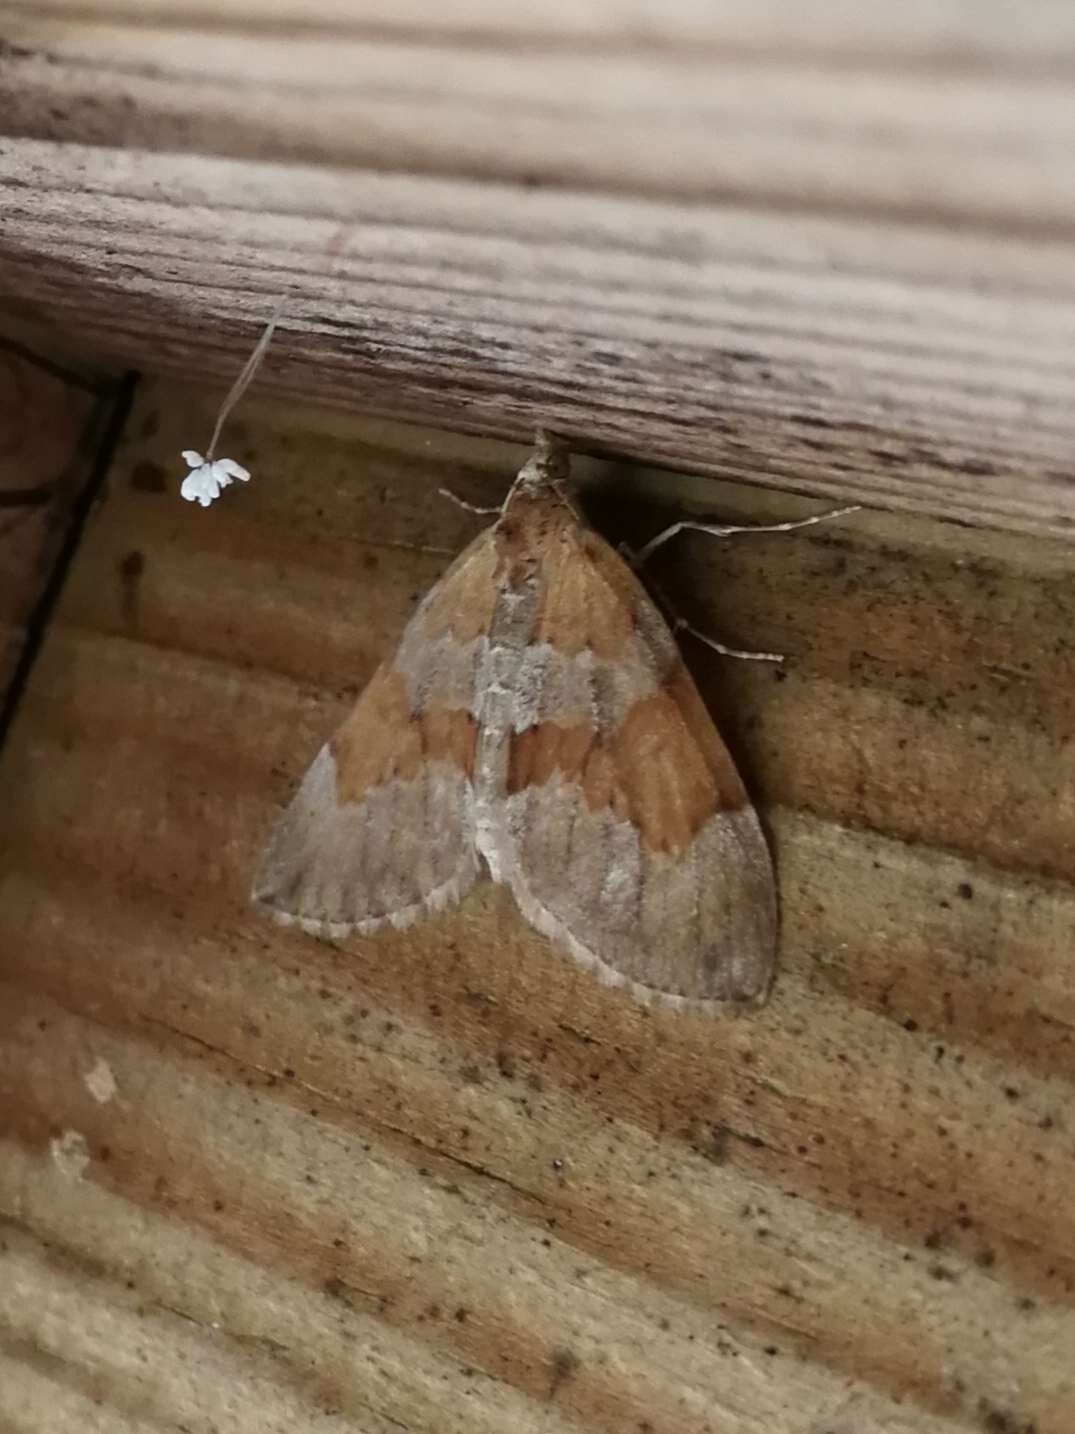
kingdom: Animalia
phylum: Arthropoda
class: Insecta
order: Lepidoptera
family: Geometridae
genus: Thera
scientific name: Thera obeliscata
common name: Grey pine carpet
